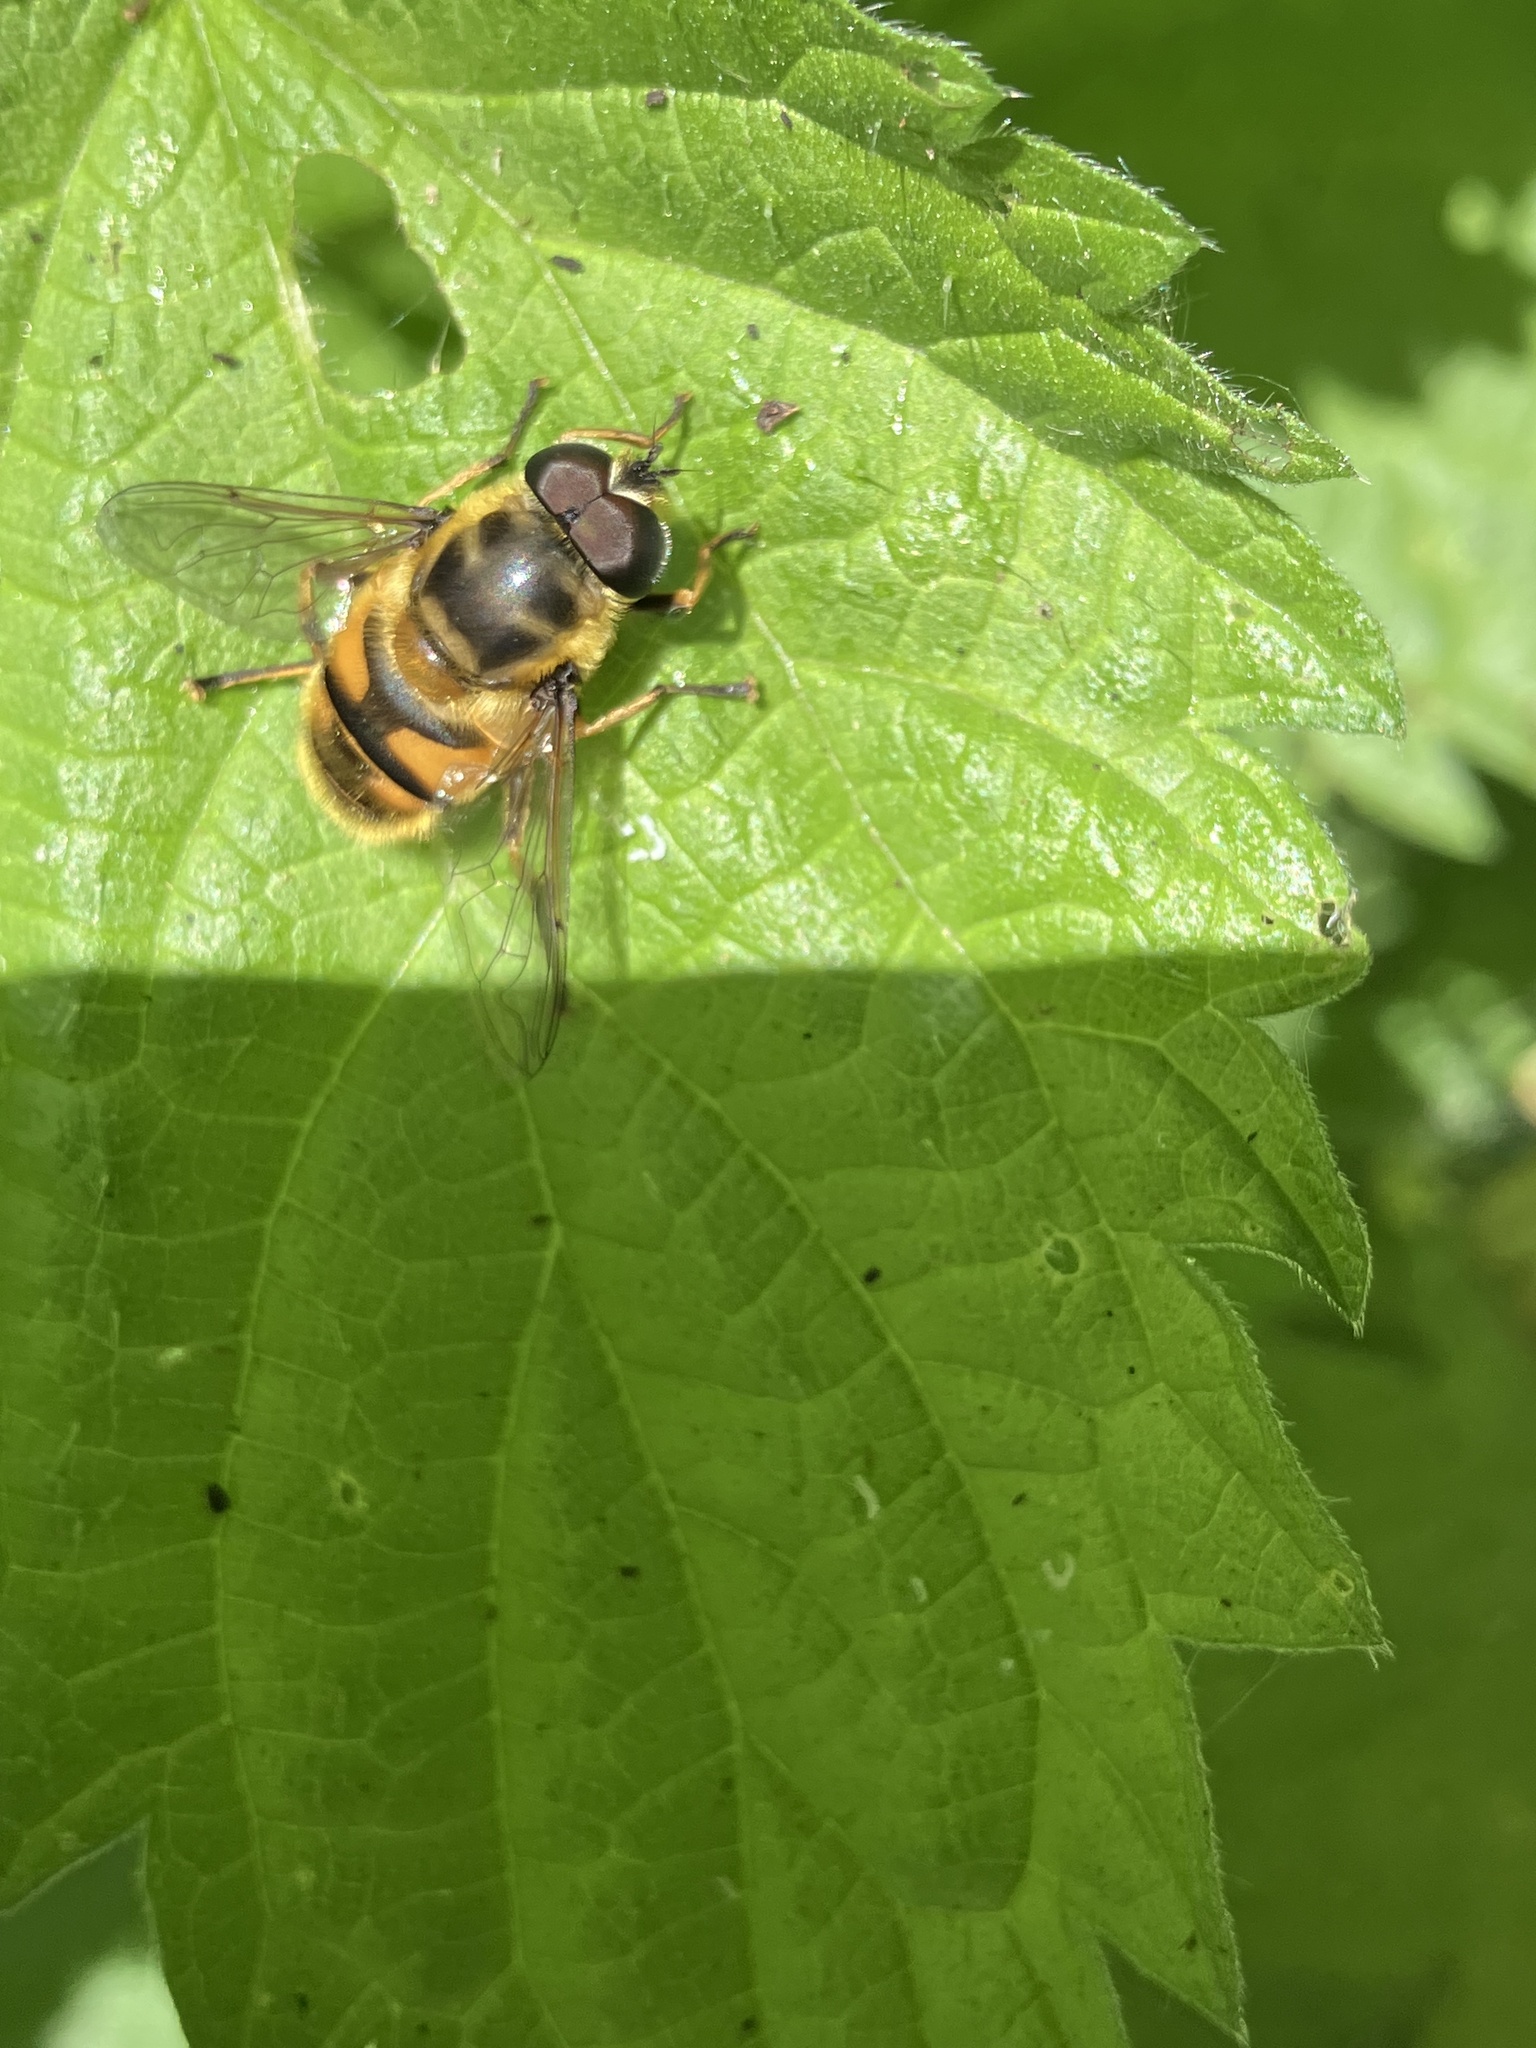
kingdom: Animalia
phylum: Arthropoda
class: Insecta
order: Diptera
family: Syrphidae
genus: Myathropa
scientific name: Myathropa florea
